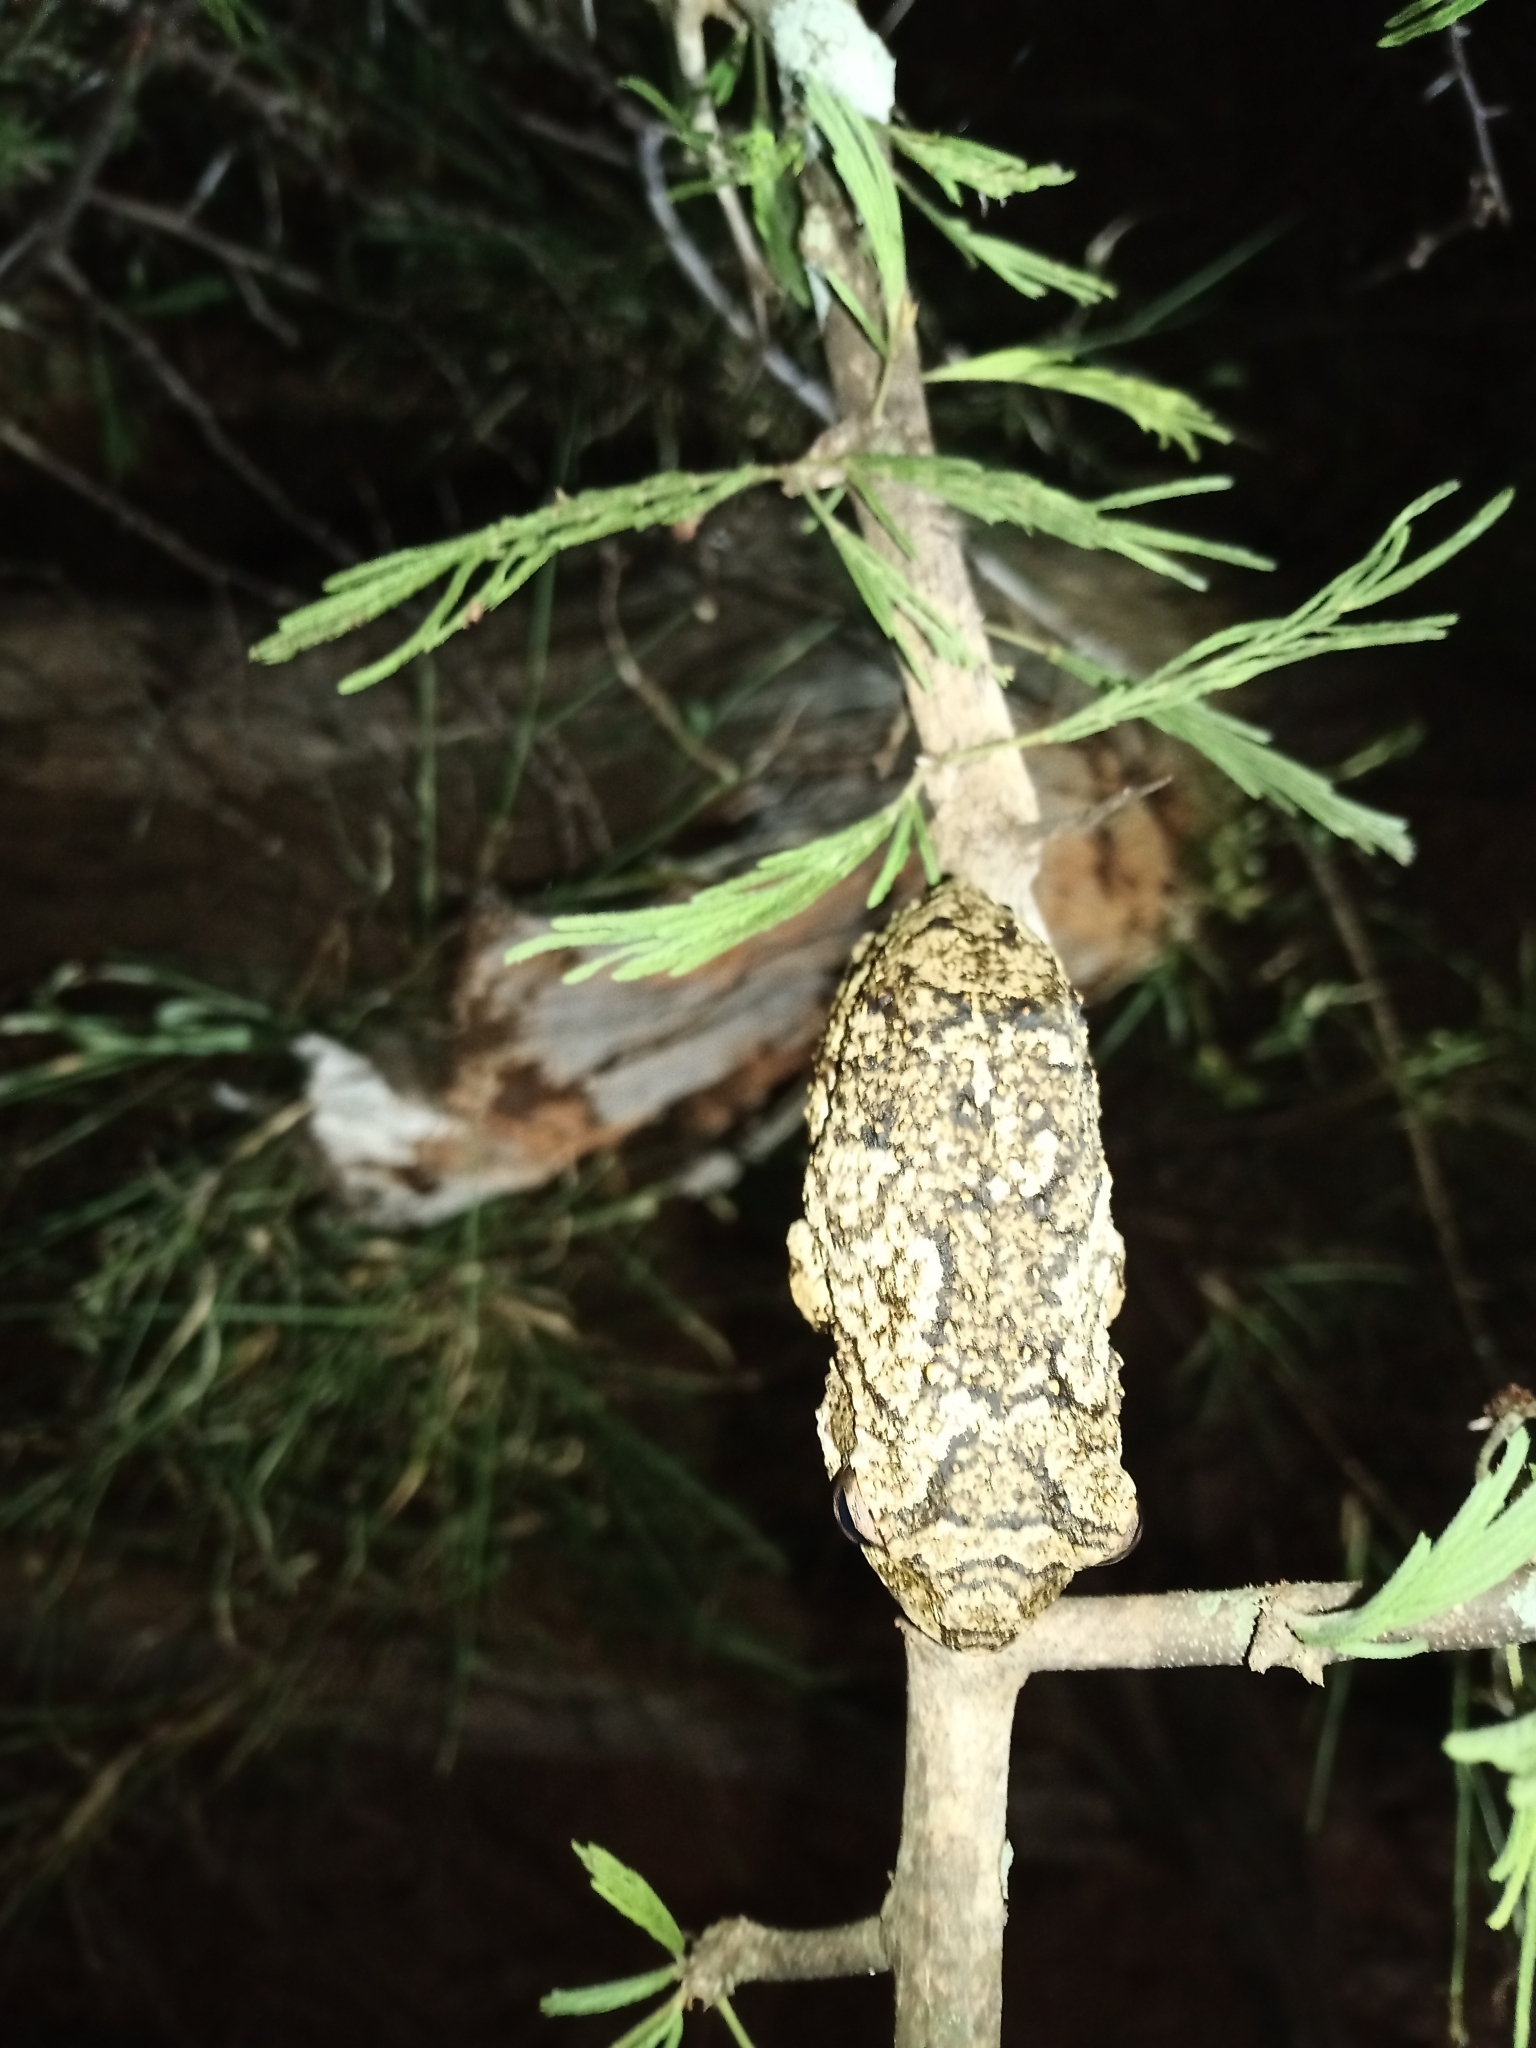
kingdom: Animalia
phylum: Chordata
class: Amphibia
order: Anura
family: Rhacophoridae
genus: Chiromantis
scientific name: Chiromantis xerampelina
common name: African gray treefrog
